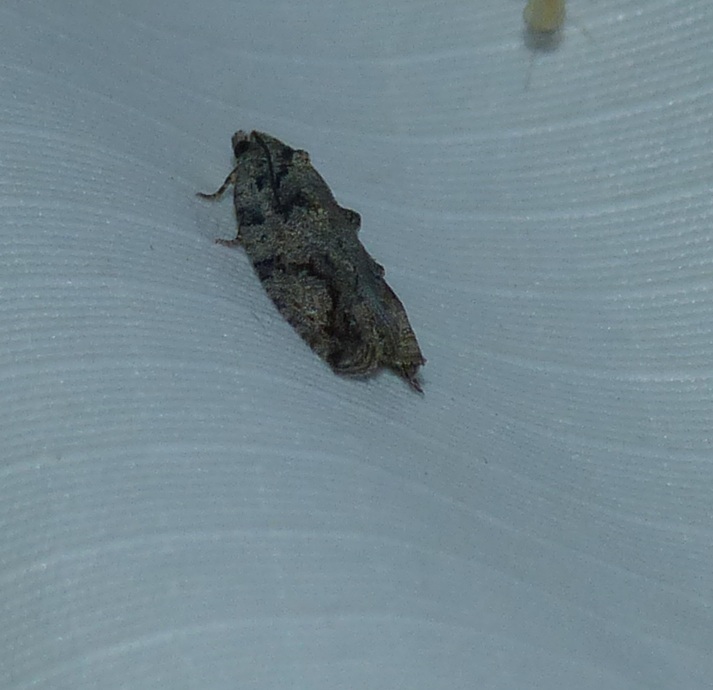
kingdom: Animalia
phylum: Arthropoda
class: Insecta
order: Lepidoptera
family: Tortricidae
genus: Proteoteras
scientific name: Proteoteras moffatiana
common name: Maple bud borer moth
